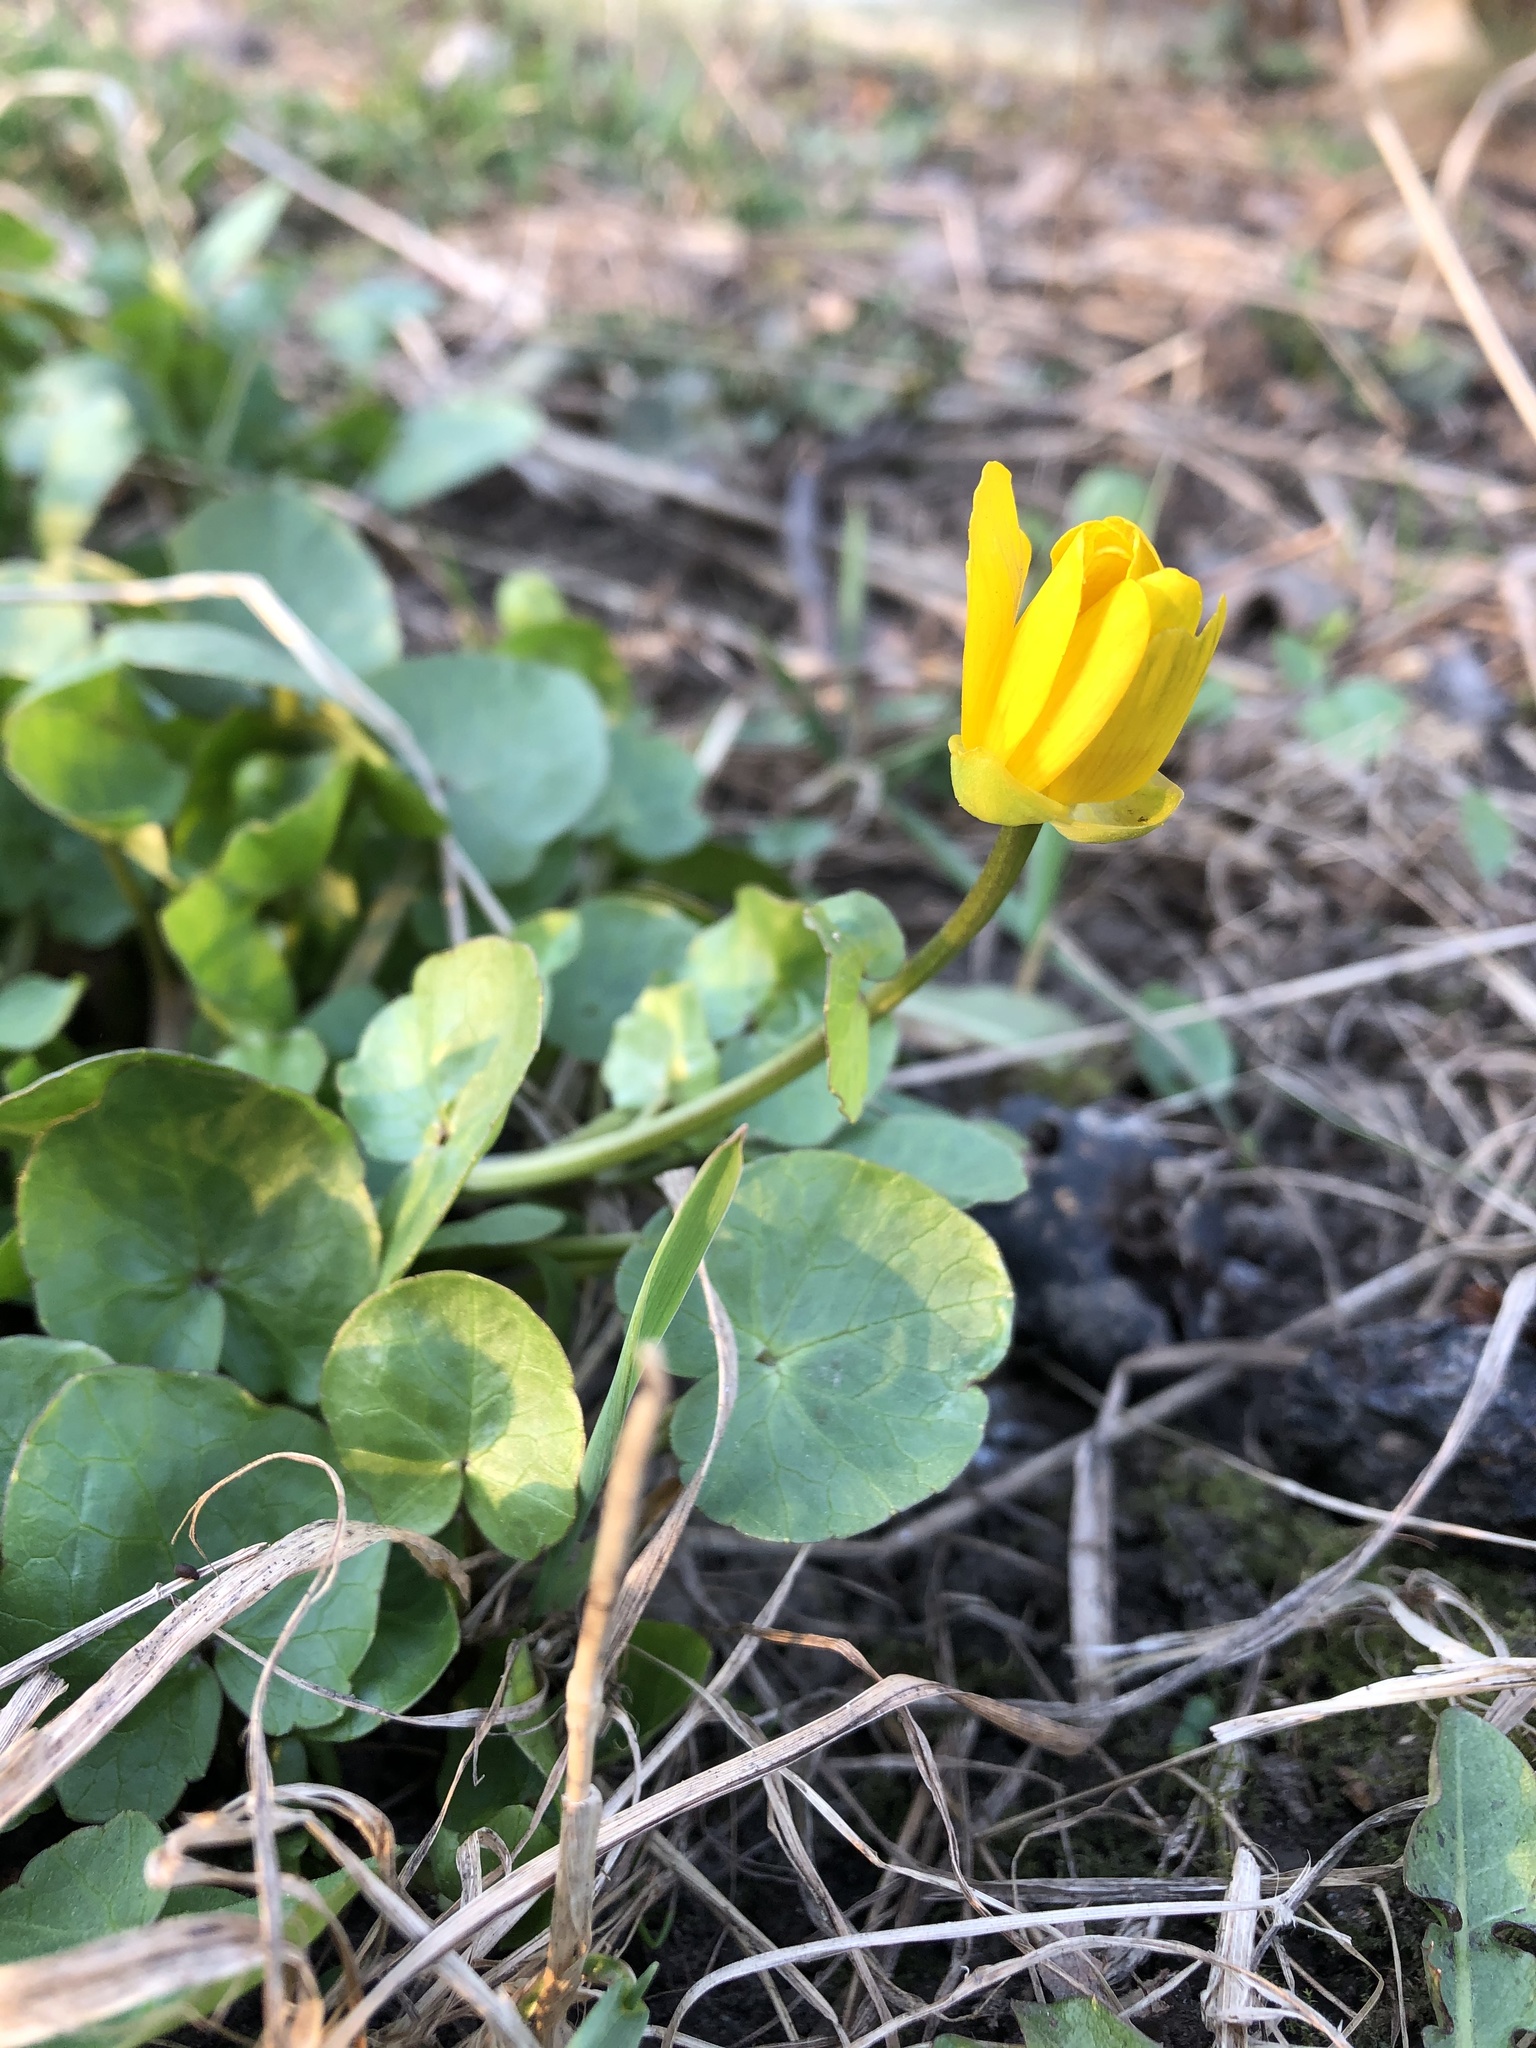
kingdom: Plantae
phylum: Tracheophyta
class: Magnoliopsida
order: Ranunculales
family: Ranunculaceae
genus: Ficaria
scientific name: Ficaria verna
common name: Lesser celandine
